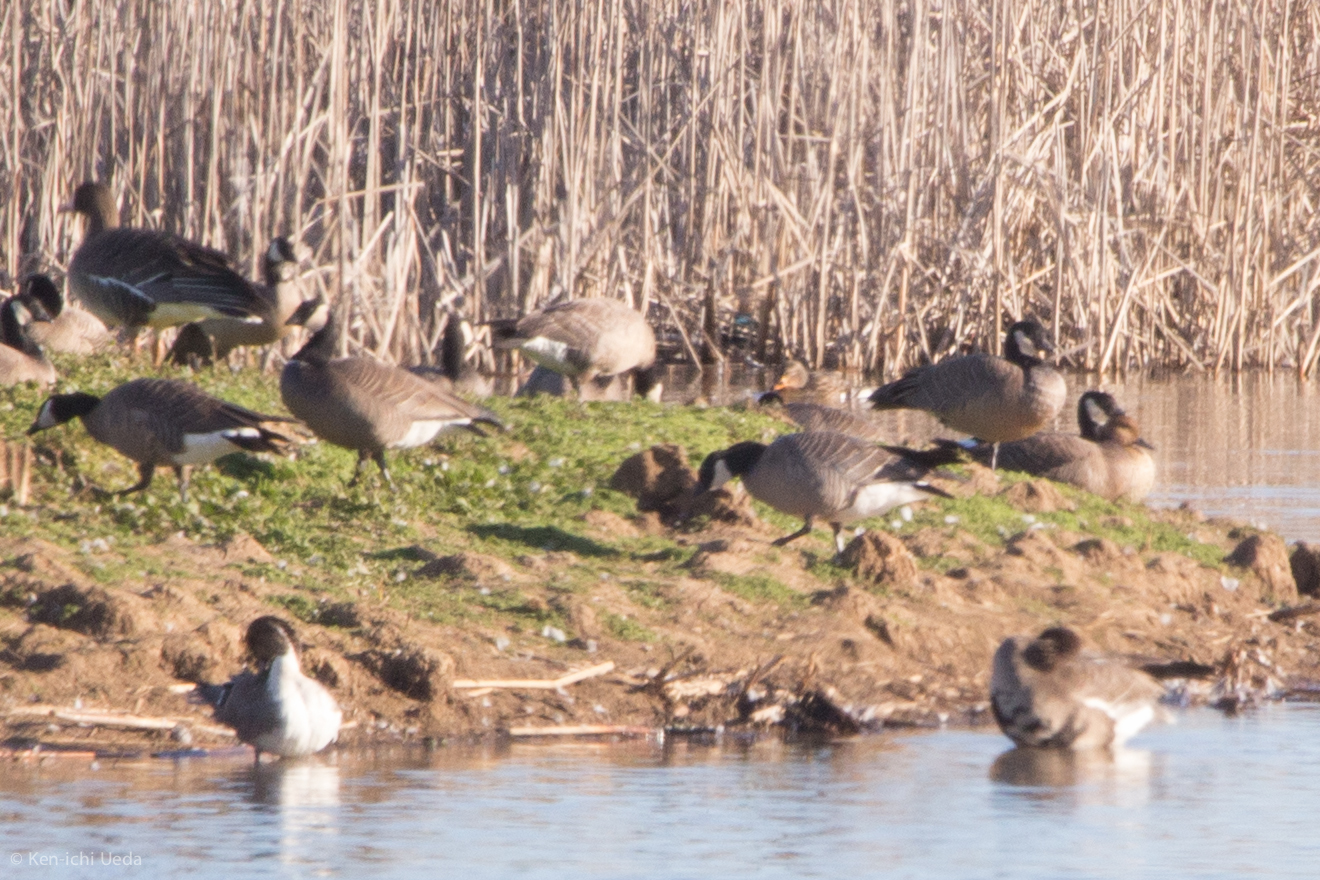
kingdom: Animalia
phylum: Chordata
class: Aves
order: Anseriformes
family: Anatidae
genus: Branta
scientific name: Branta hutchinsii
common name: Cackling goose
